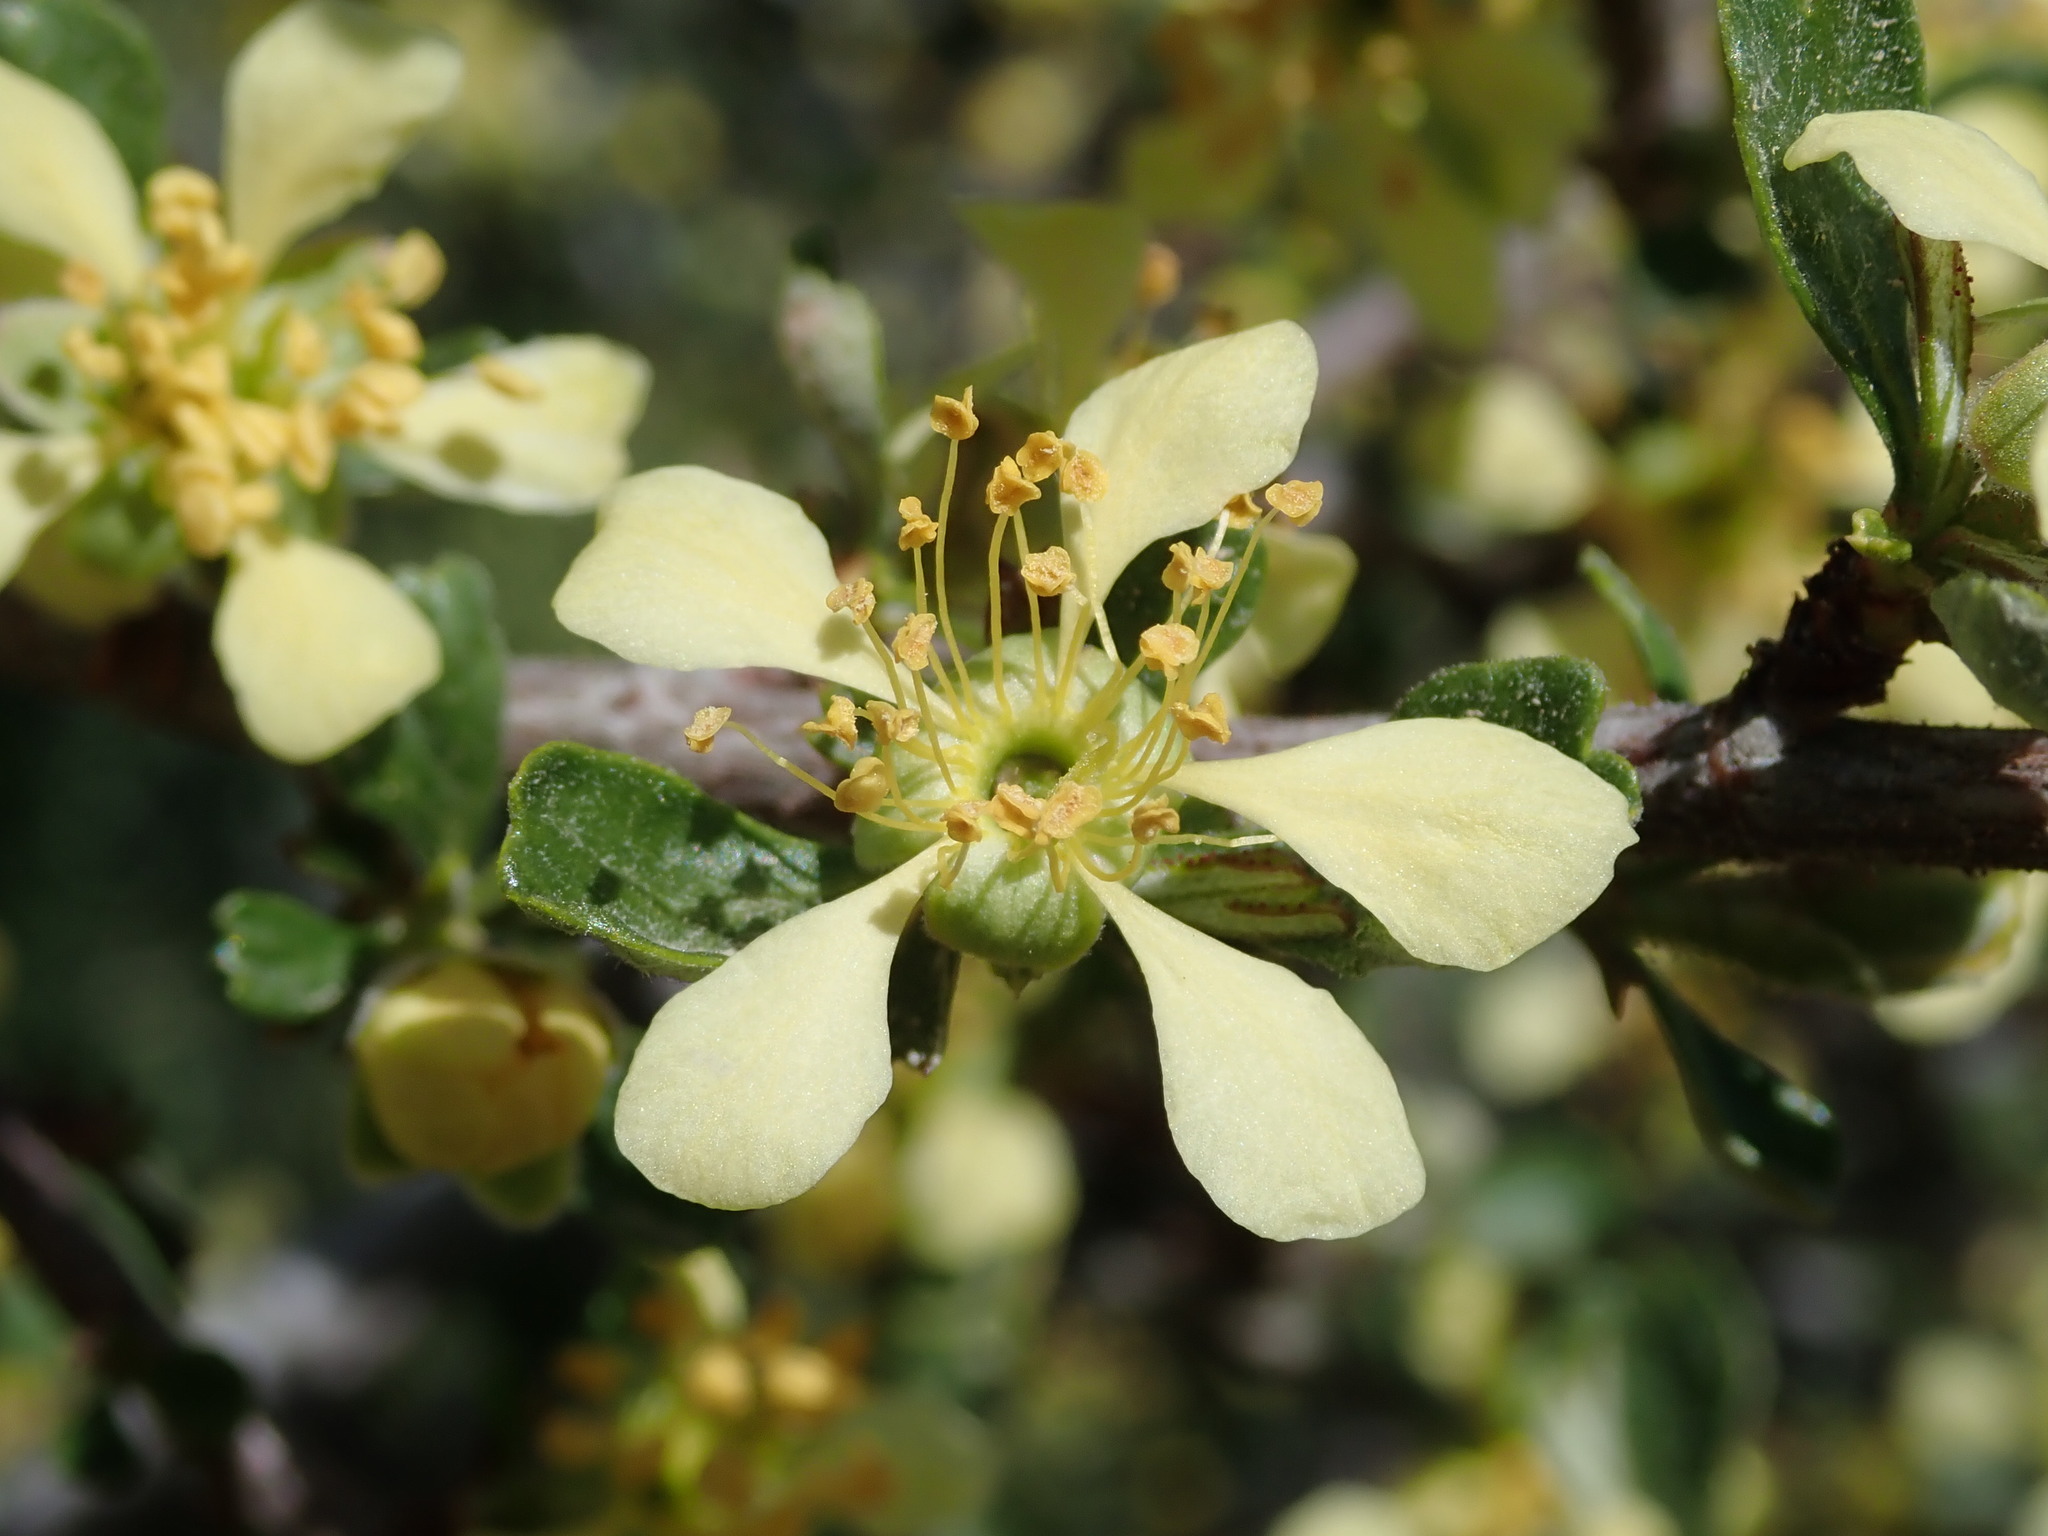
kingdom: Plantae
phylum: Tracheophyta
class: Magnoliopsida
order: Rosales
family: Rosaceae
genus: Purshia
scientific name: Purshia tridentata
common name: Antelope bitterbrush
